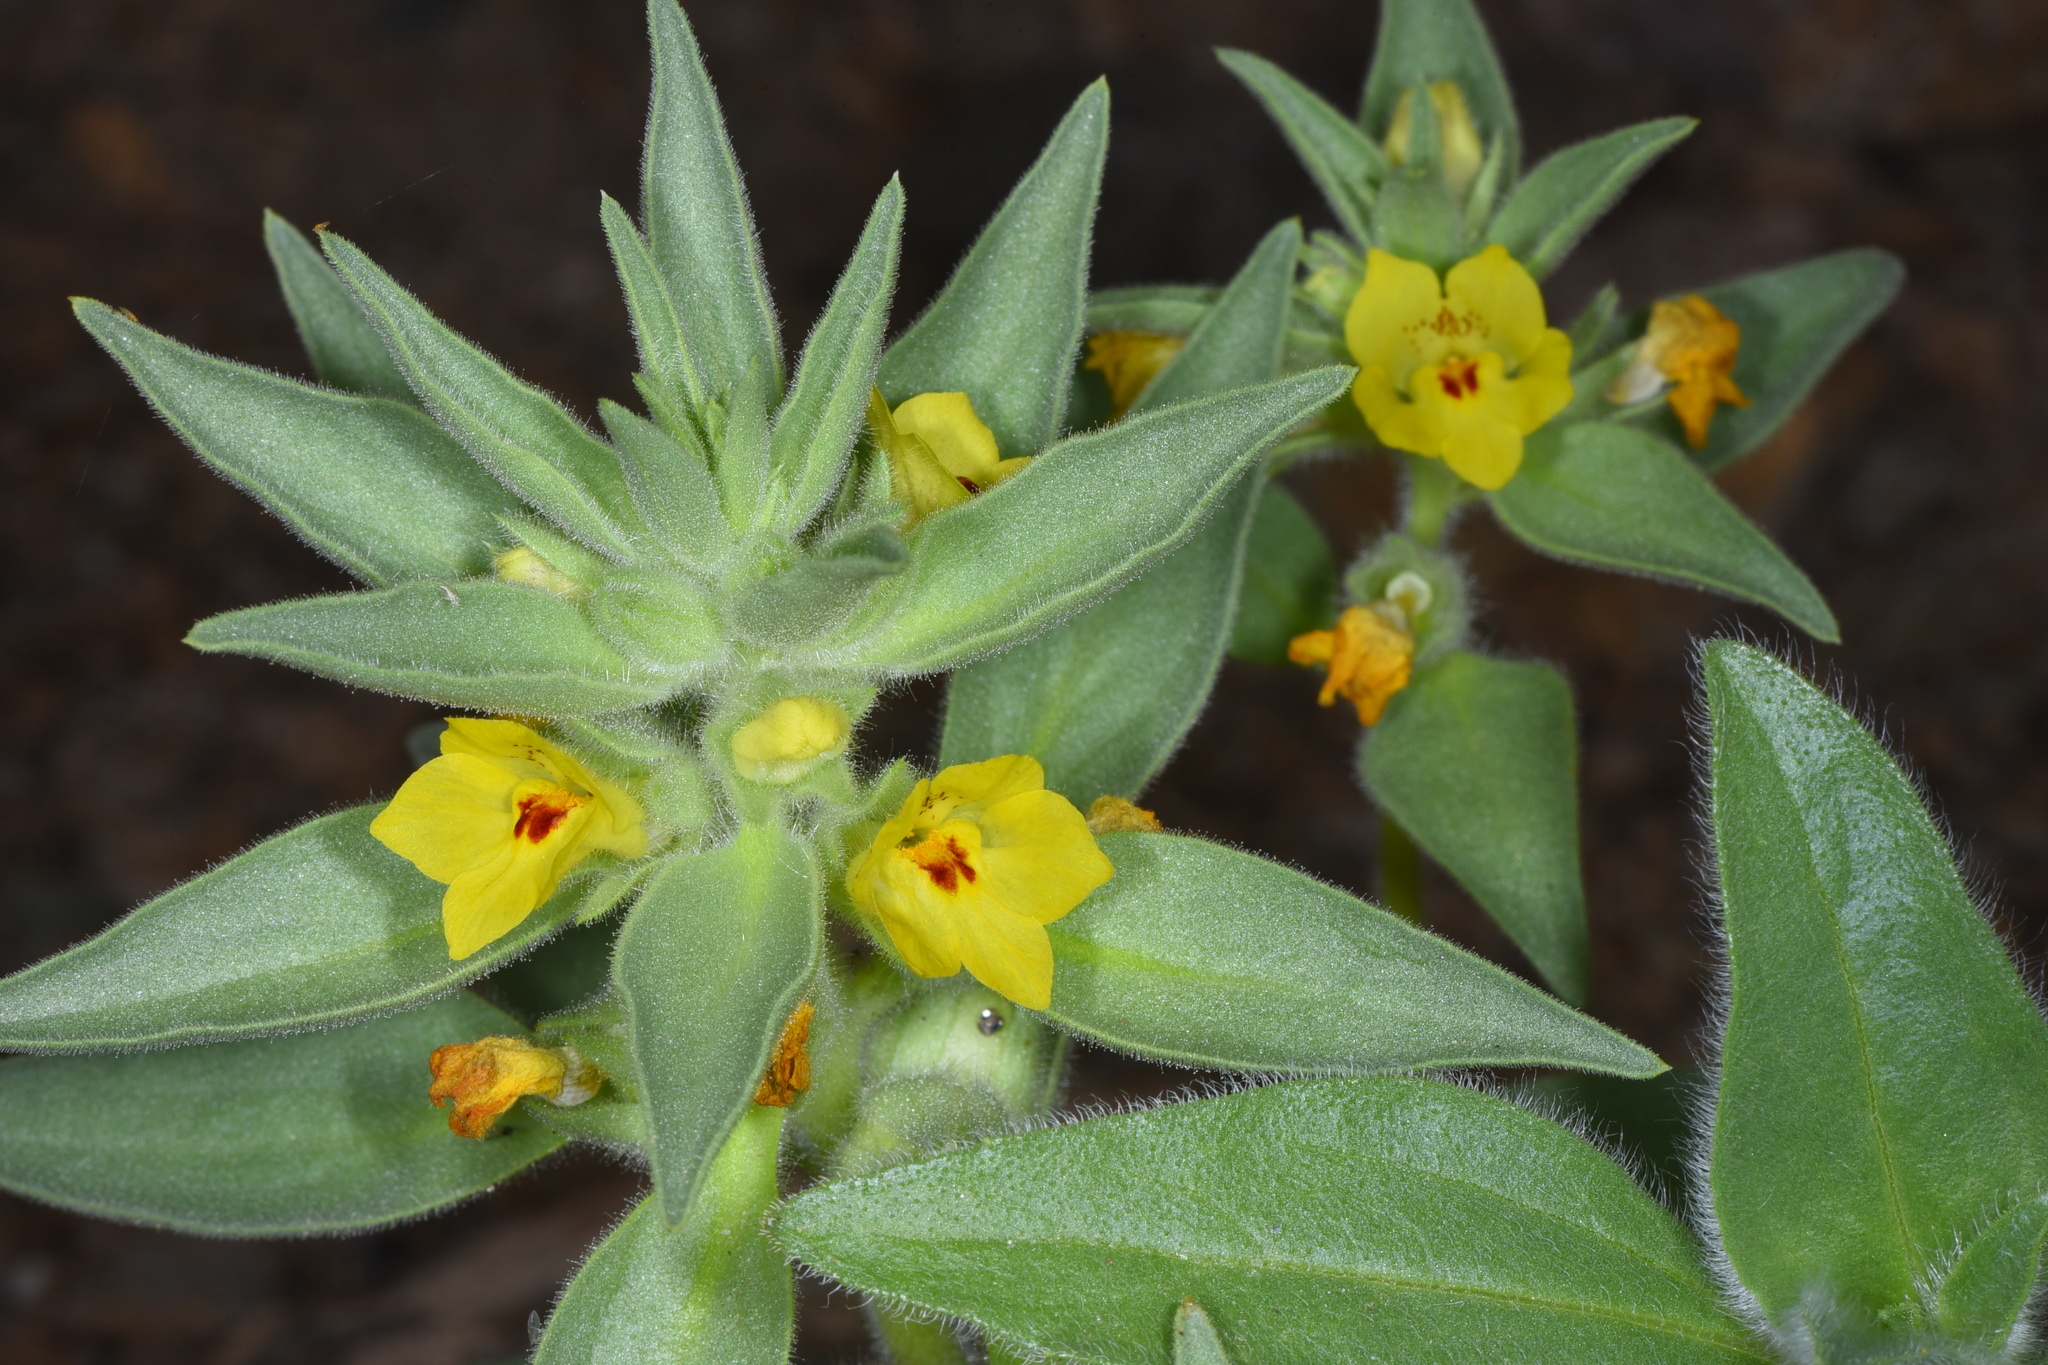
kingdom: Plantae
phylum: Tracheophyta
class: Magnoliopsida
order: Lamiales
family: Plantaginaceae
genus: Mohavea
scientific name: Mohavea breviflora
